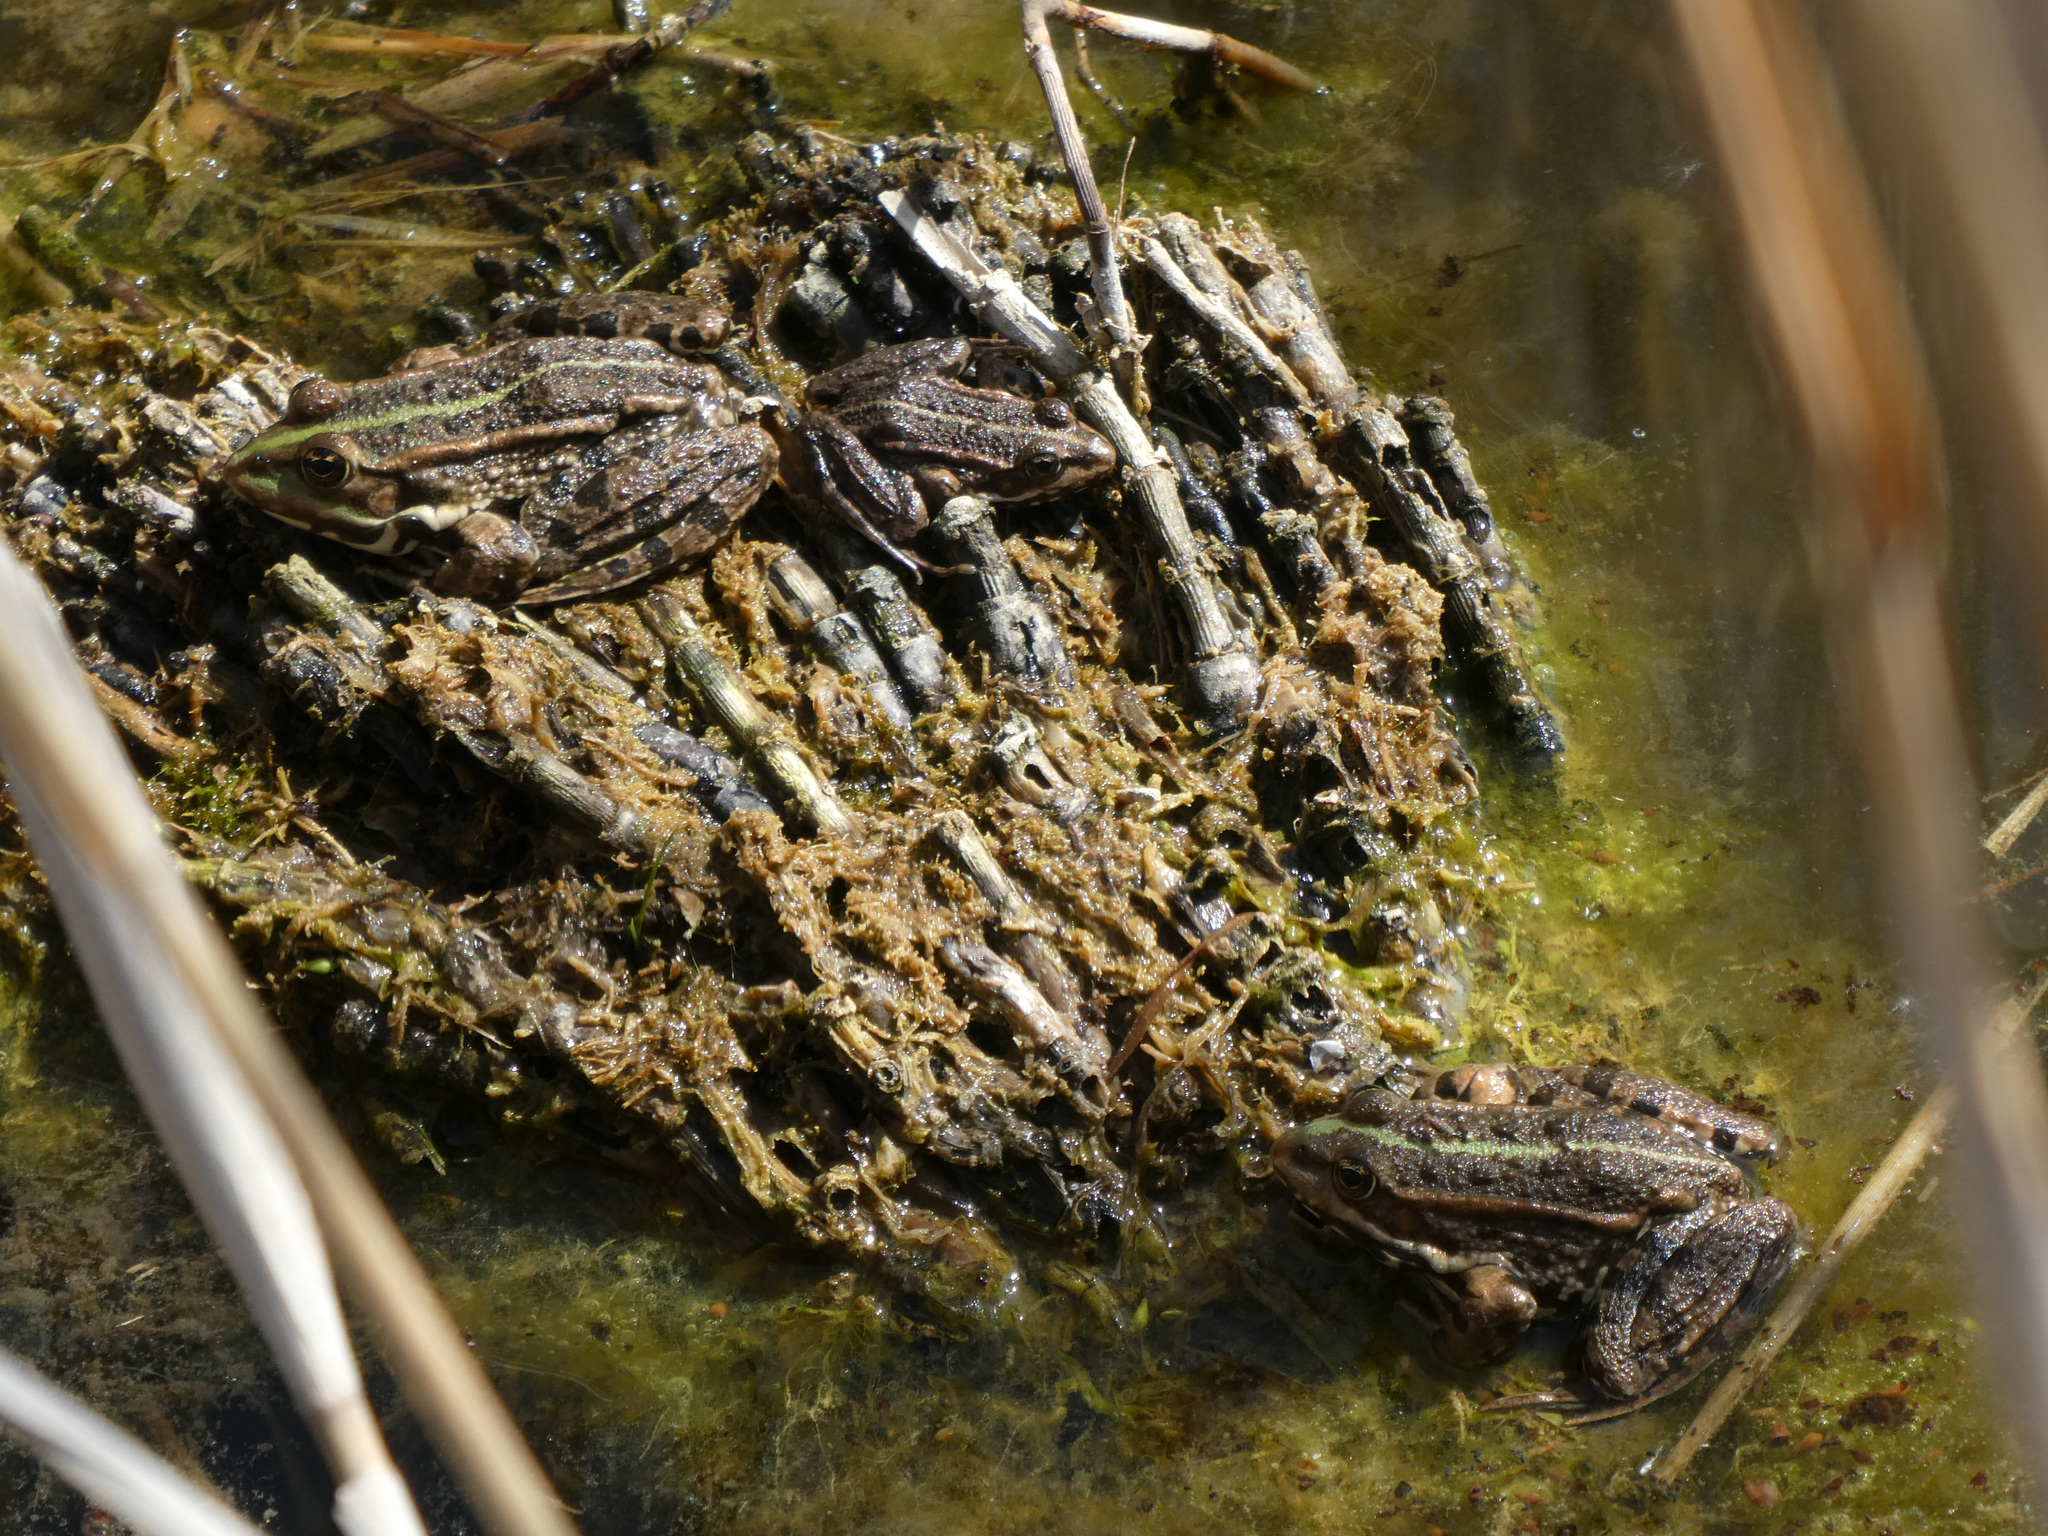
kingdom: Animalia
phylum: Chordata
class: Amphibia
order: Anura
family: Ranidae
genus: Pelophylax
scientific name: Pelophylax
